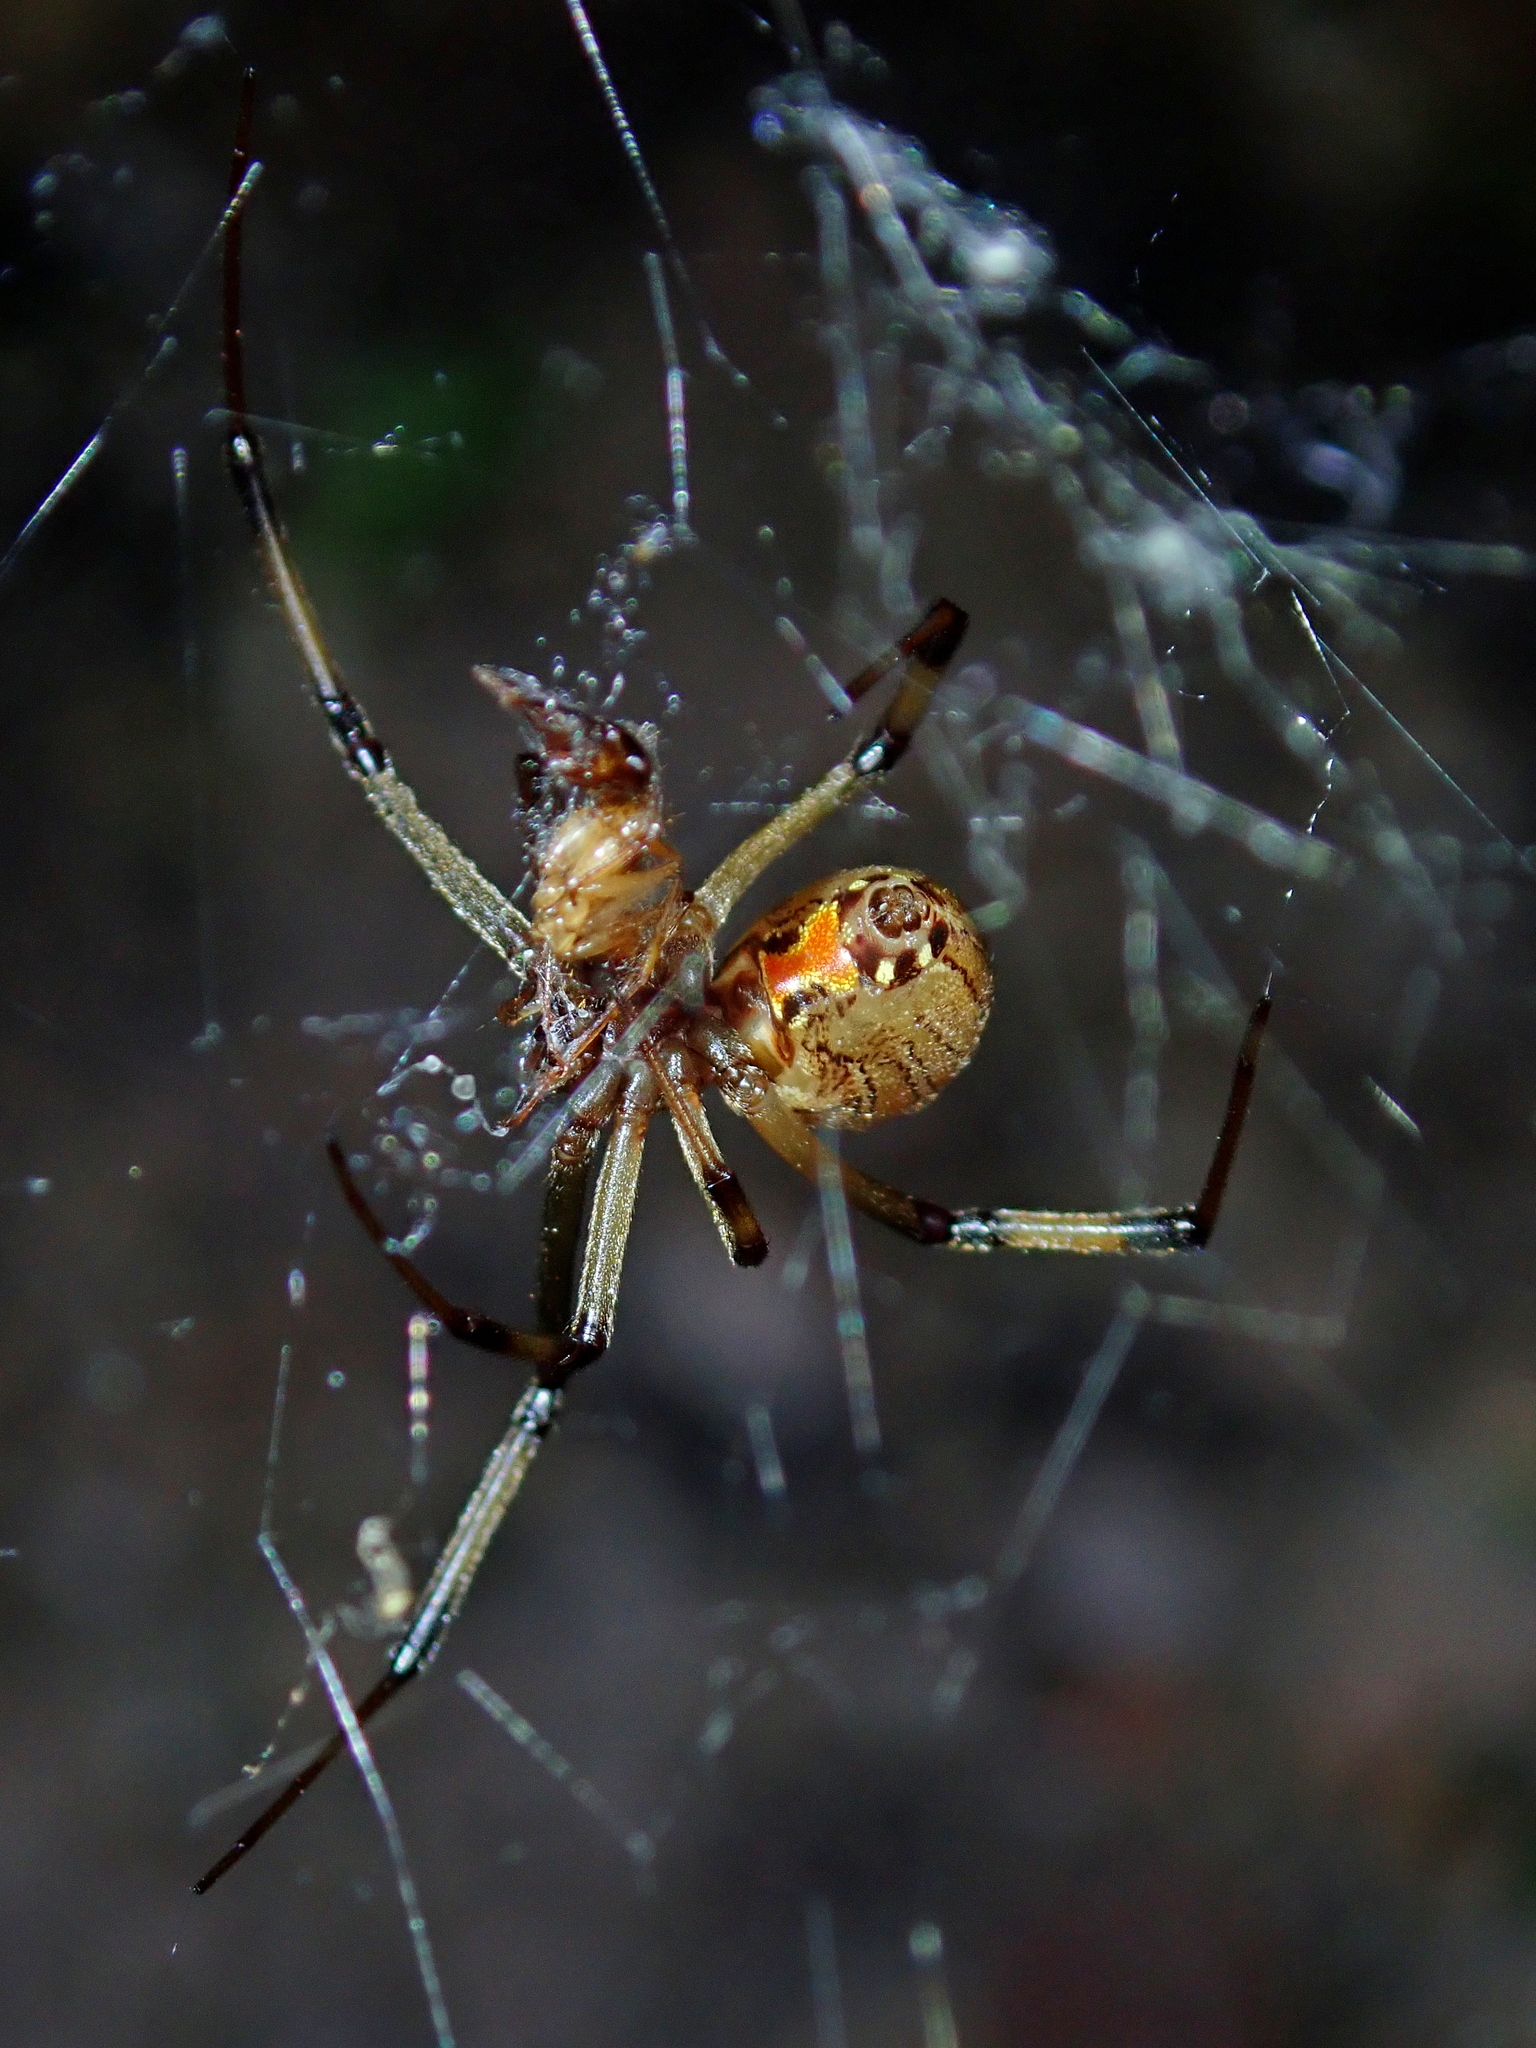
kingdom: Animalia
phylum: Arthropoda
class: Arachnida
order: Araneae
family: Theridiidae
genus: Latrodectus
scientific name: Latrodectus geometricus
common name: Brown widow spider
